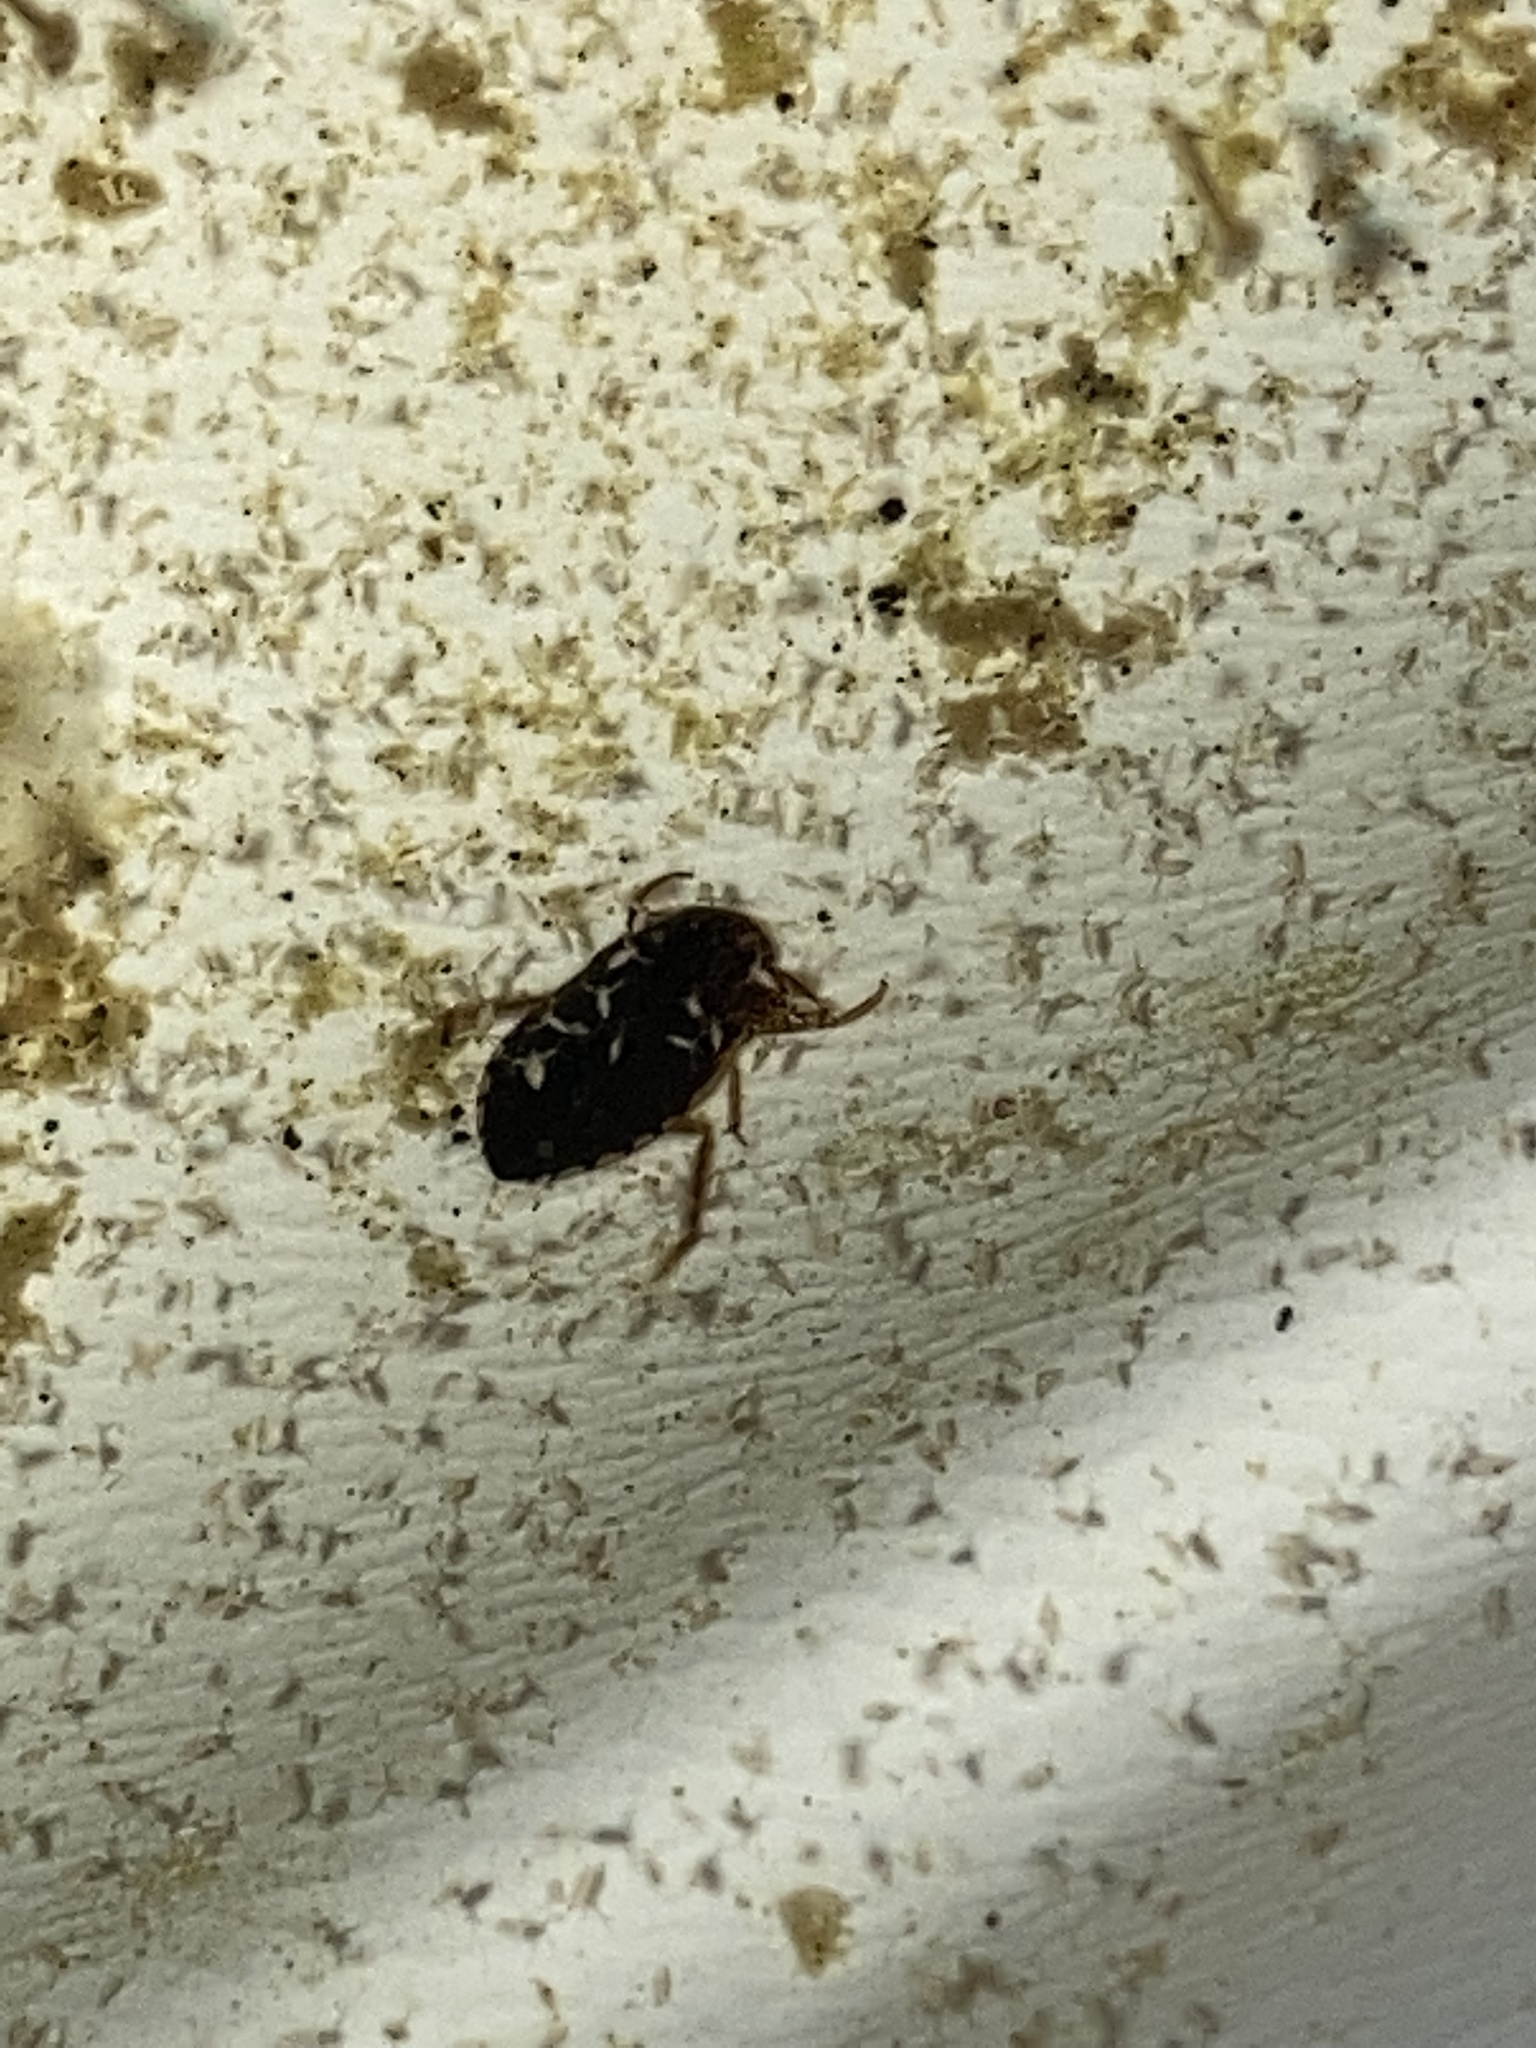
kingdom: Animalia
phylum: Arthropoda
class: Insecta
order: Hemiptera
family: Naucoridae
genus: Pelocoris
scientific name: Pelocoris balius
